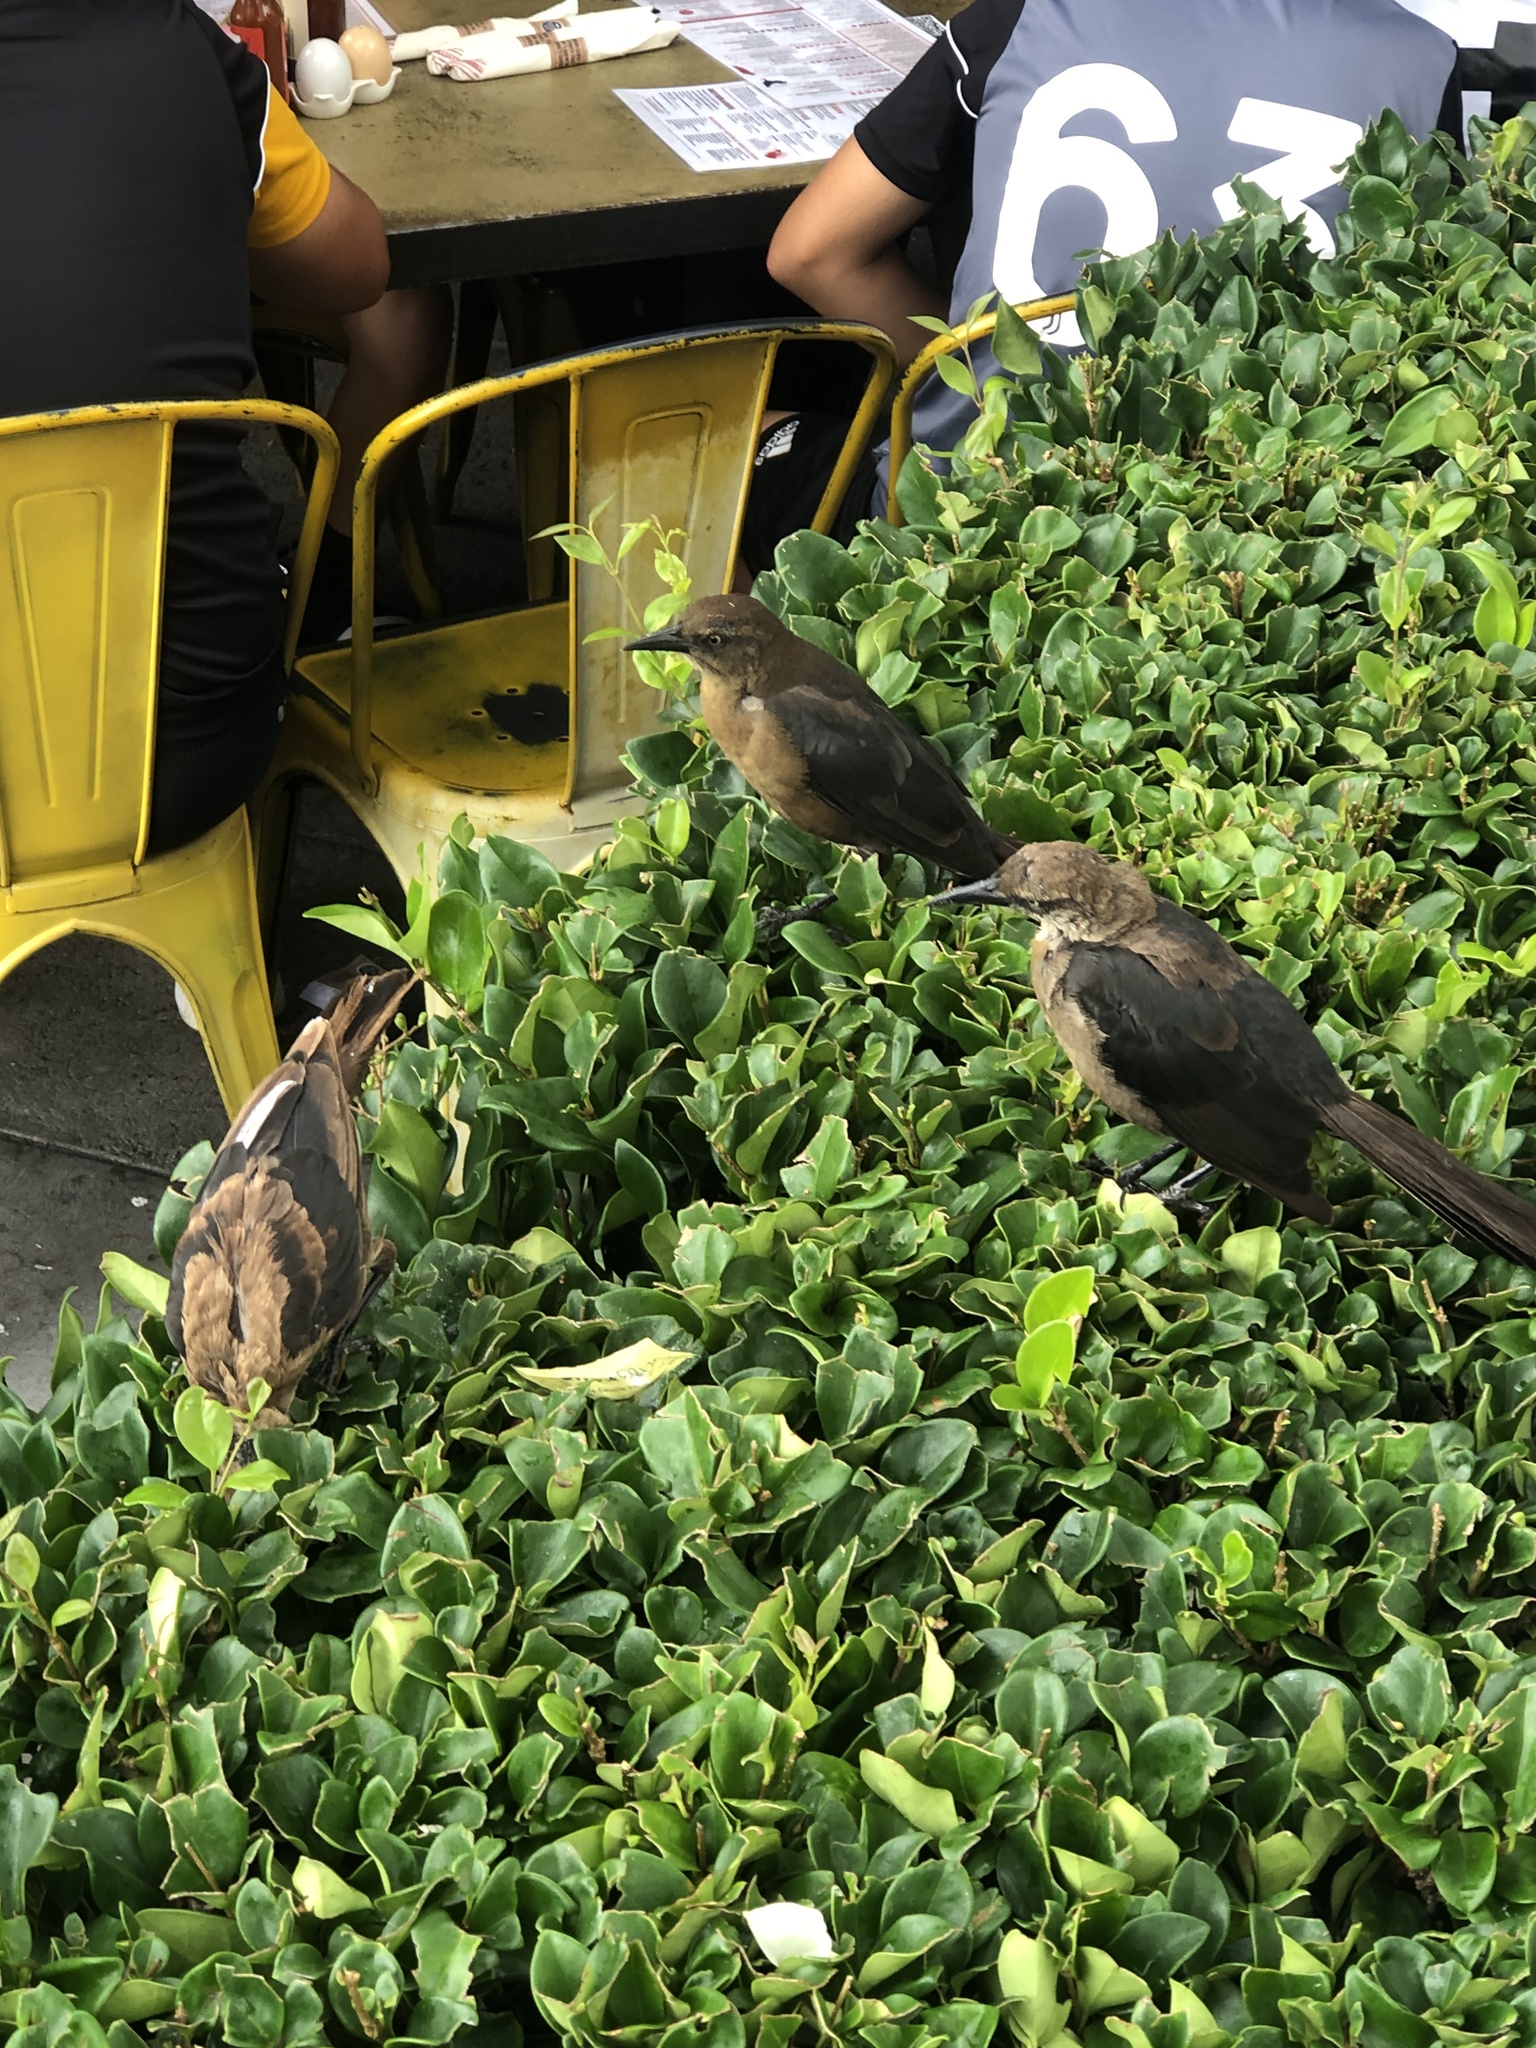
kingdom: Animalia
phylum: Chordata
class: Aves
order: Passeriformes
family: Icteridae
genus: Quiscalus
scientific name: Quiscalus mexicanus
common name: Great-tailed grackle
